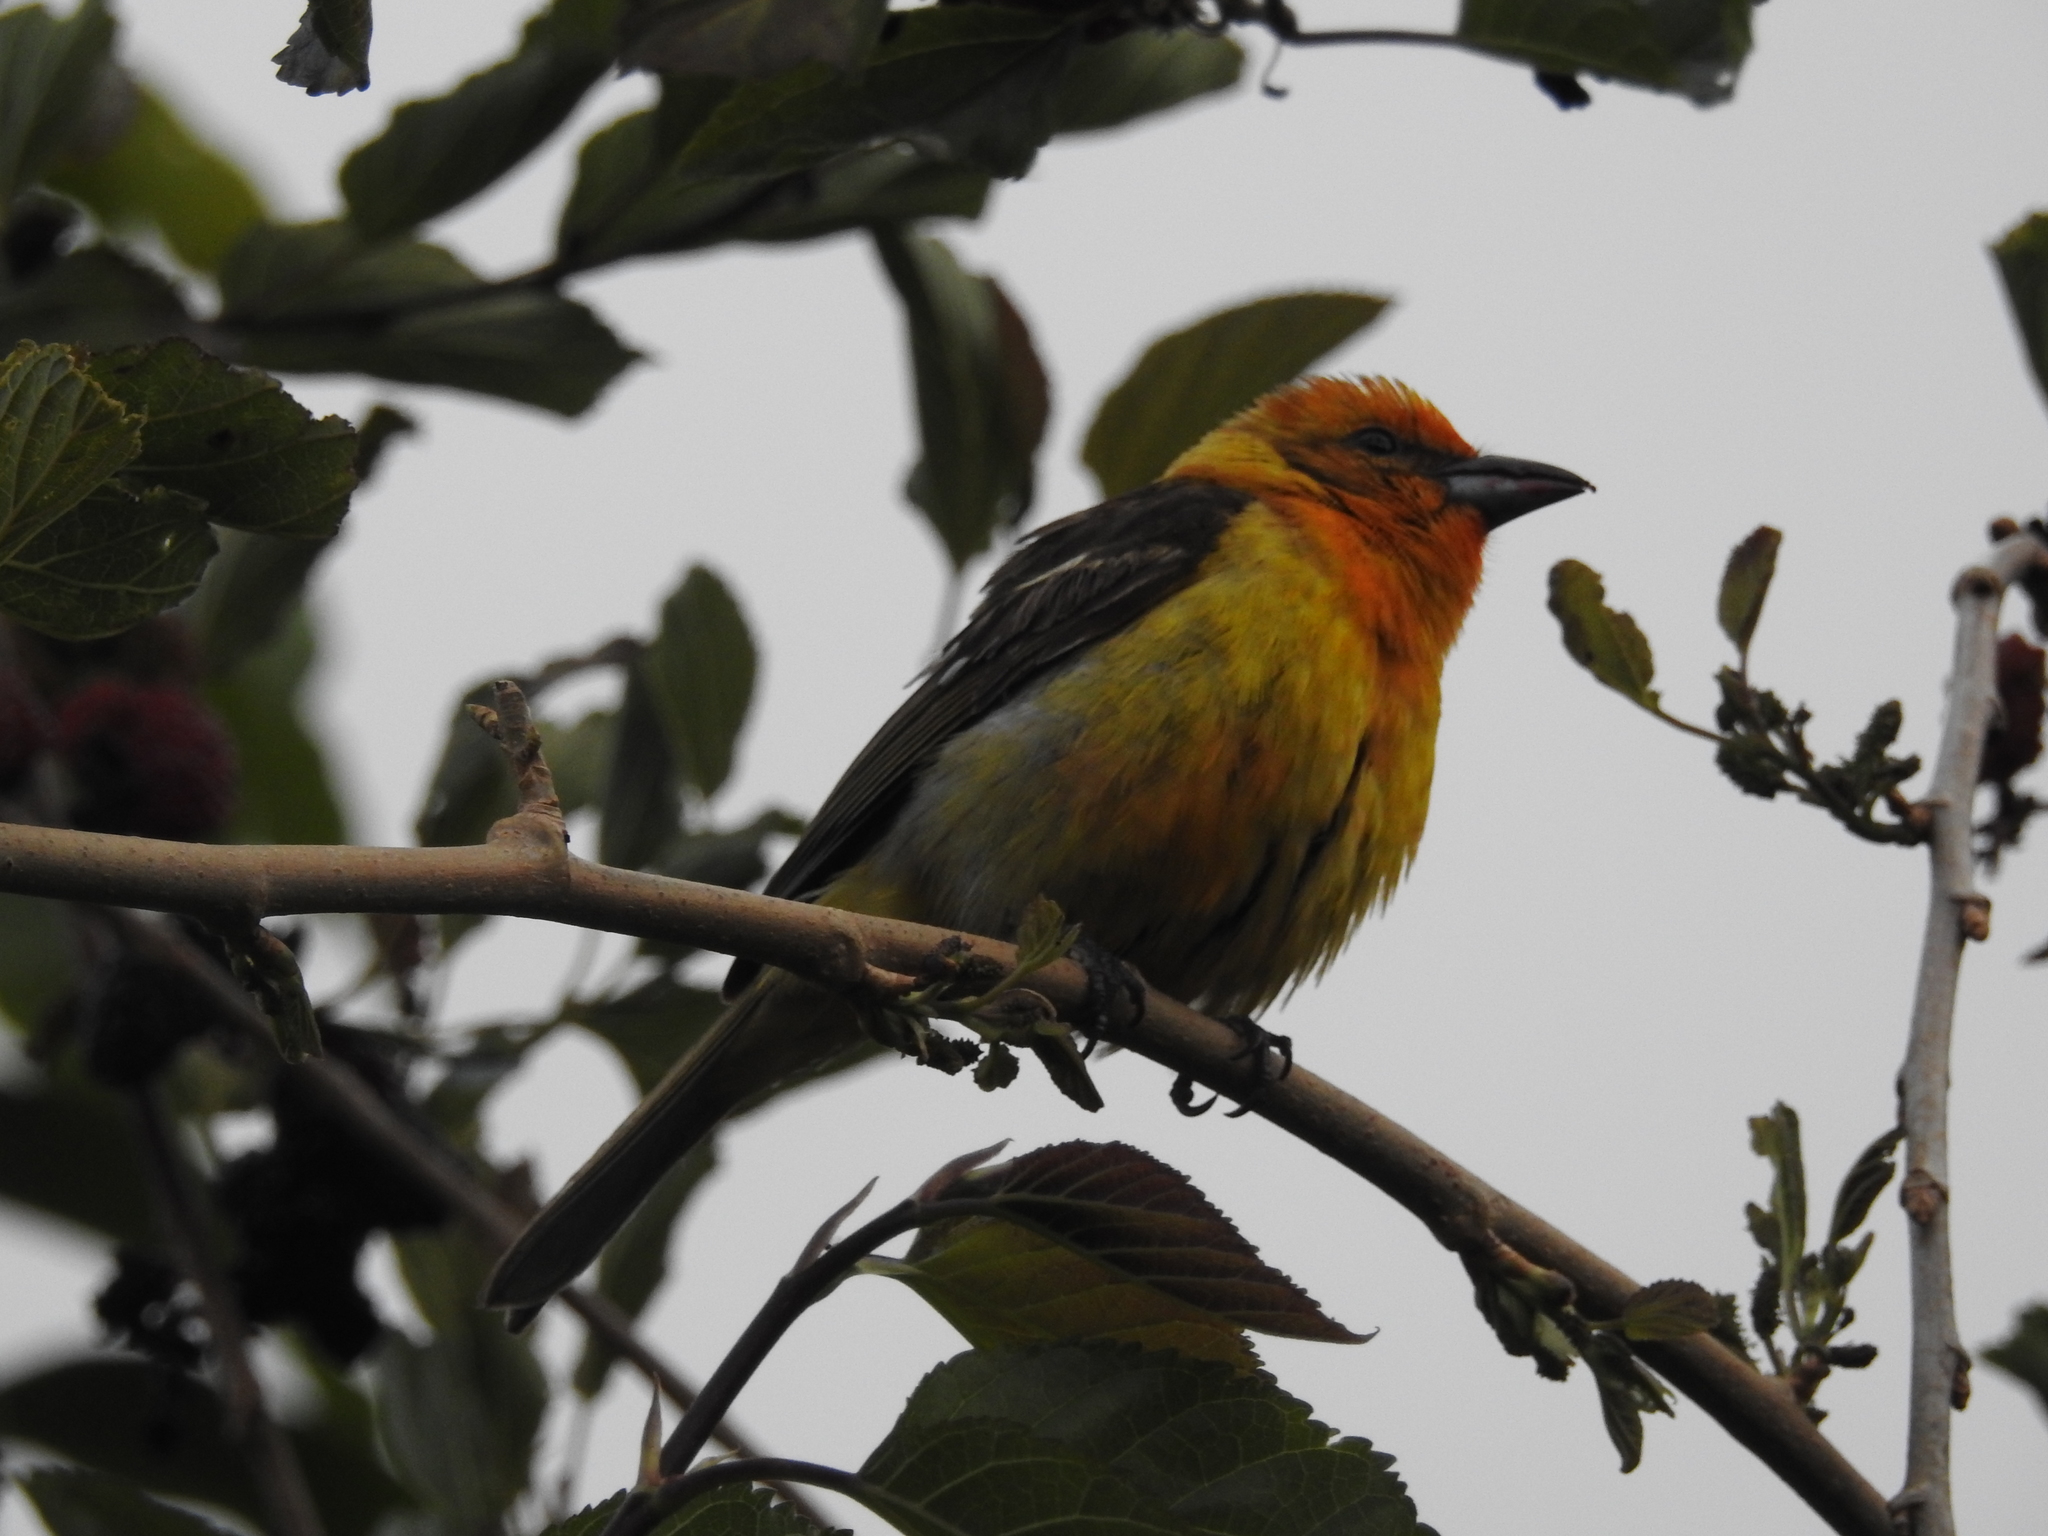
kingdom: Animalia
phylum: Chordata
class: Aves
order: Passeriformes
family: Cardinalidae
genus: Piranga
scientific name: Piranga bidentata
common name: Flame-colored tanager
